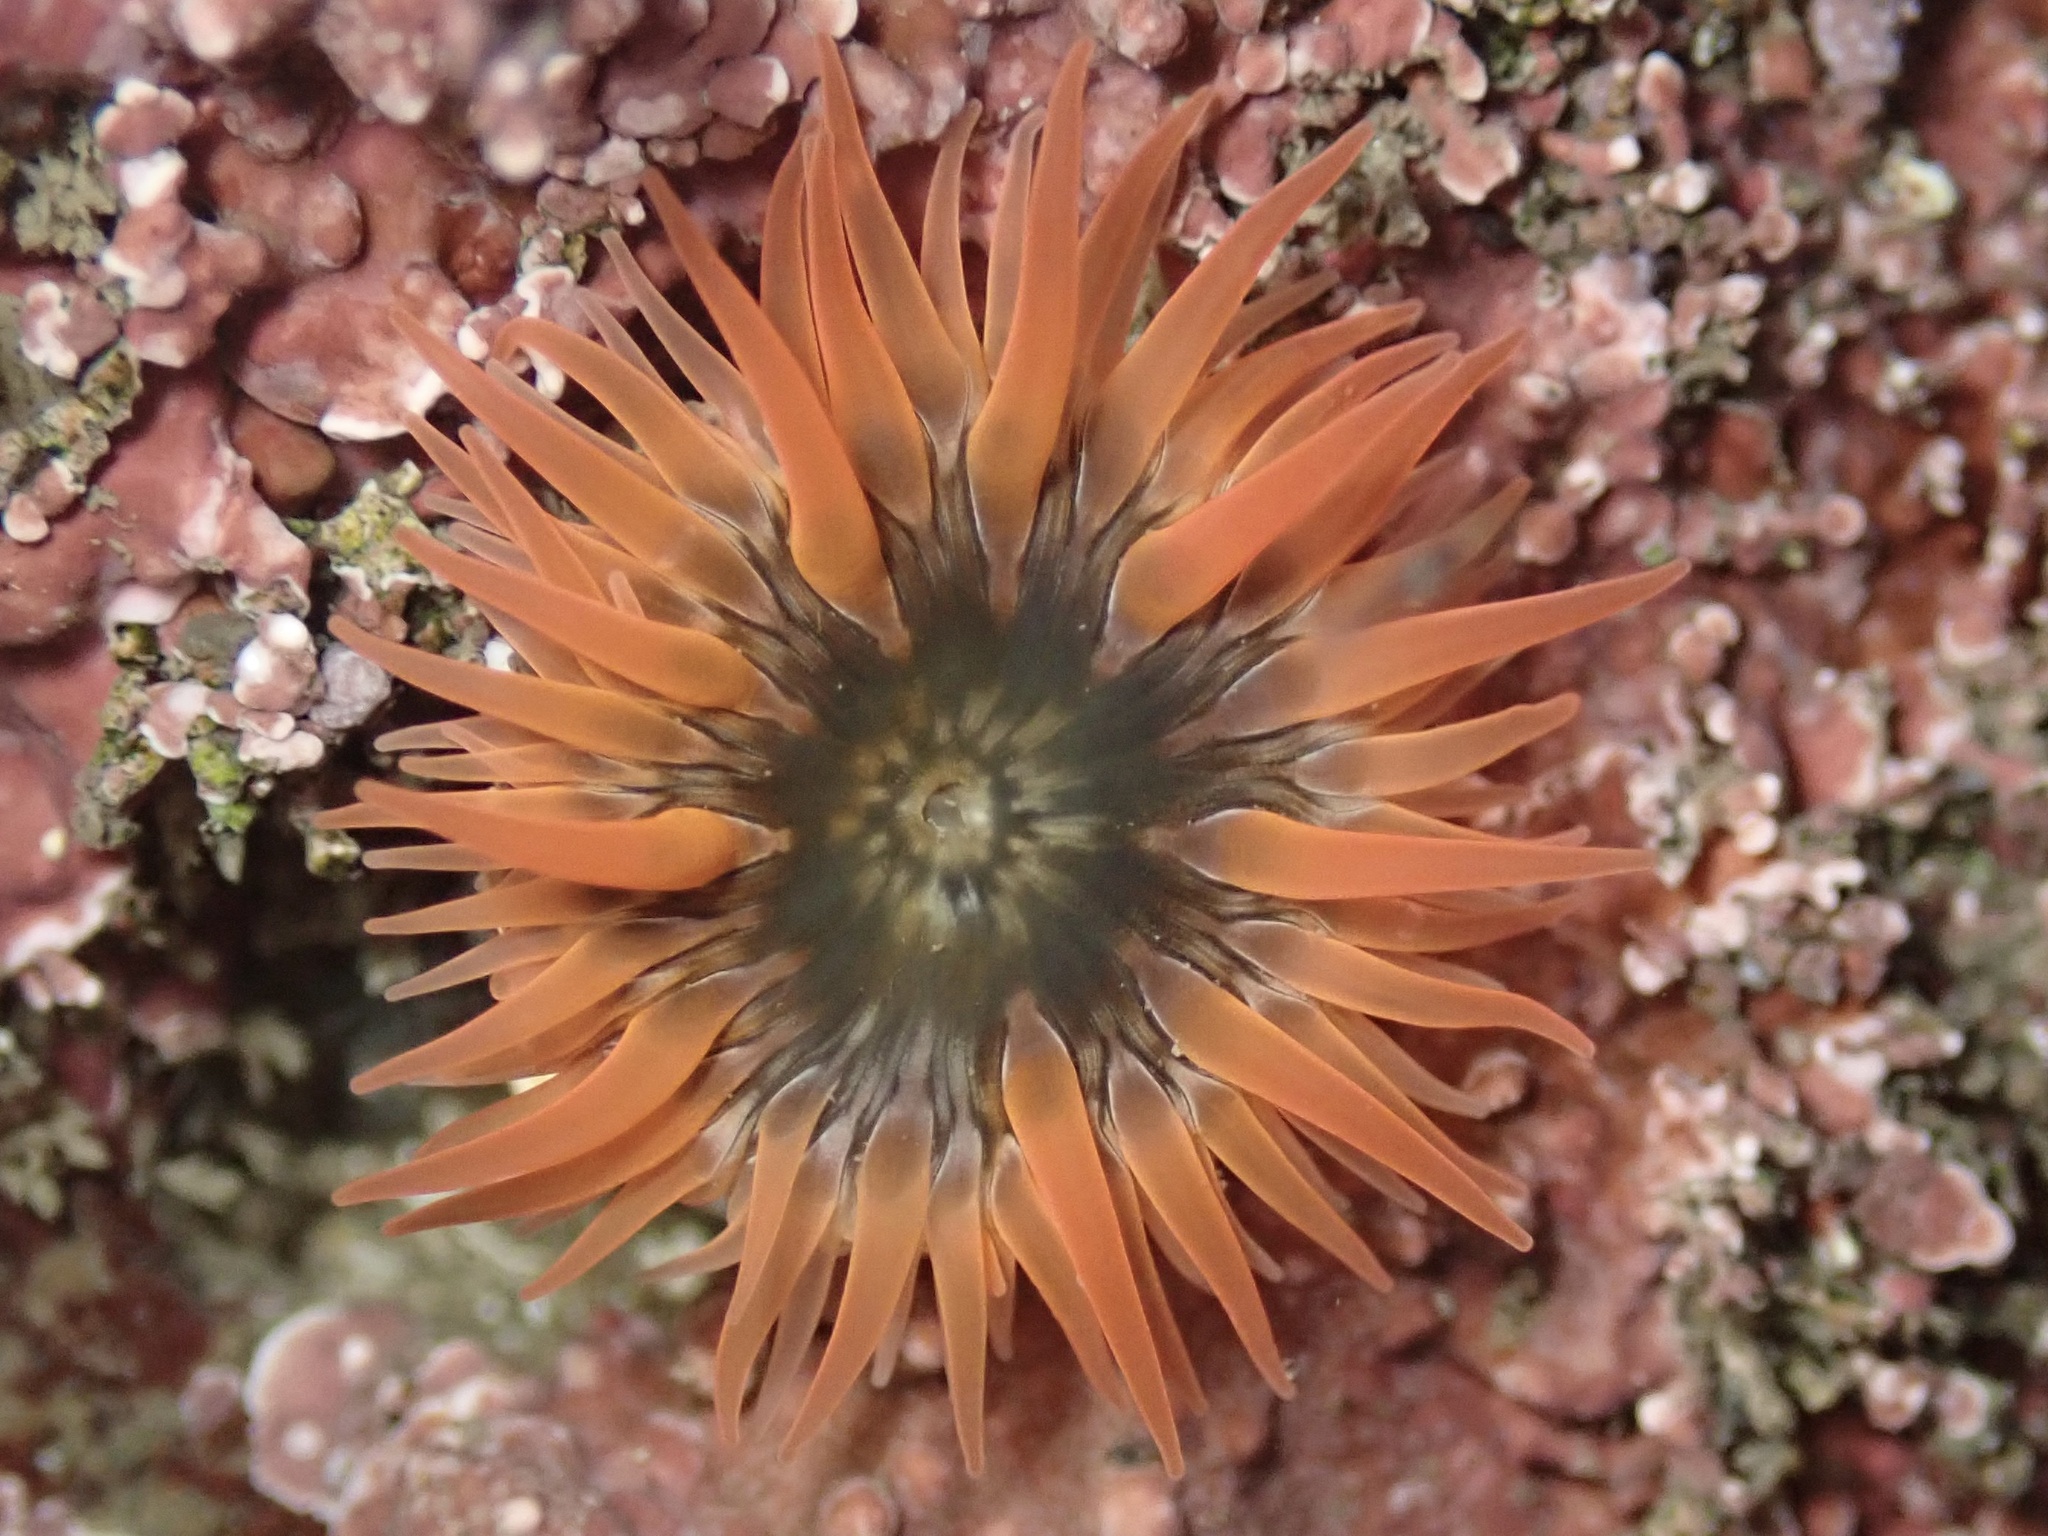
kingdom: Animalia
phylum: Cnidaria
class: Anthozoa
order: Actiniaria
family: Actiniidae
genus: Anthopleura
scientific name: Anthopleura artemisia
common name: Buried sea anemone
